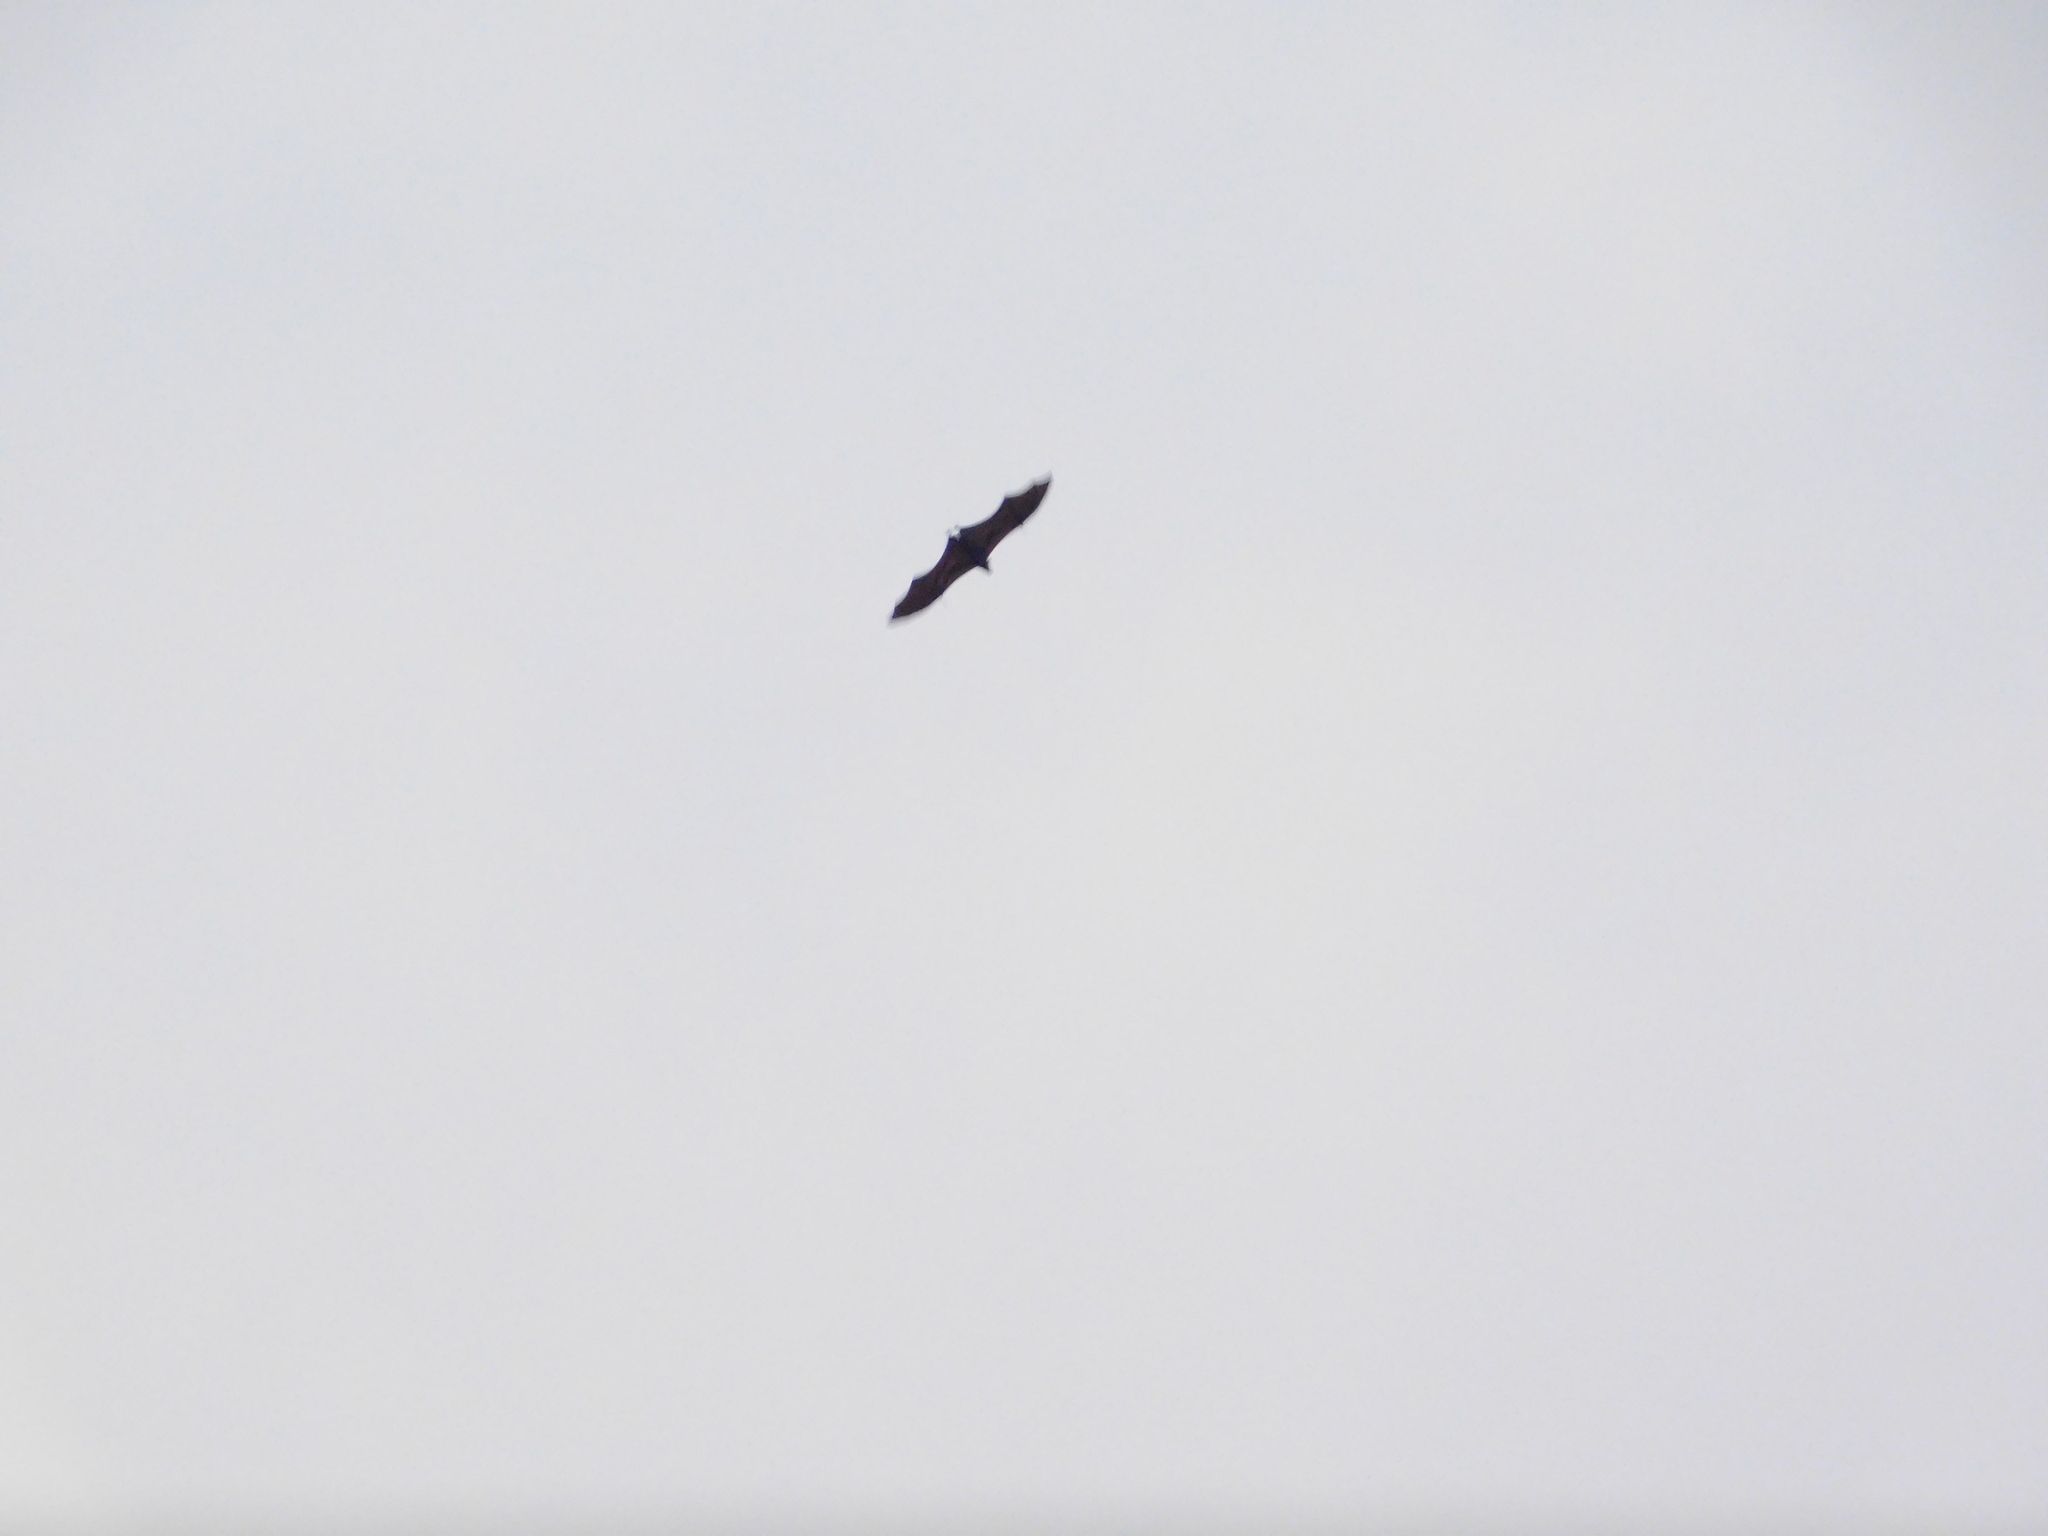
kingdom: Animalia
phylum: Chordata
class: Mammalia
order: Chiroptera
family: Pteropodidae
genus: Pteropus
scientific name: Pteropus vampyrus
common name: Large flying fox
